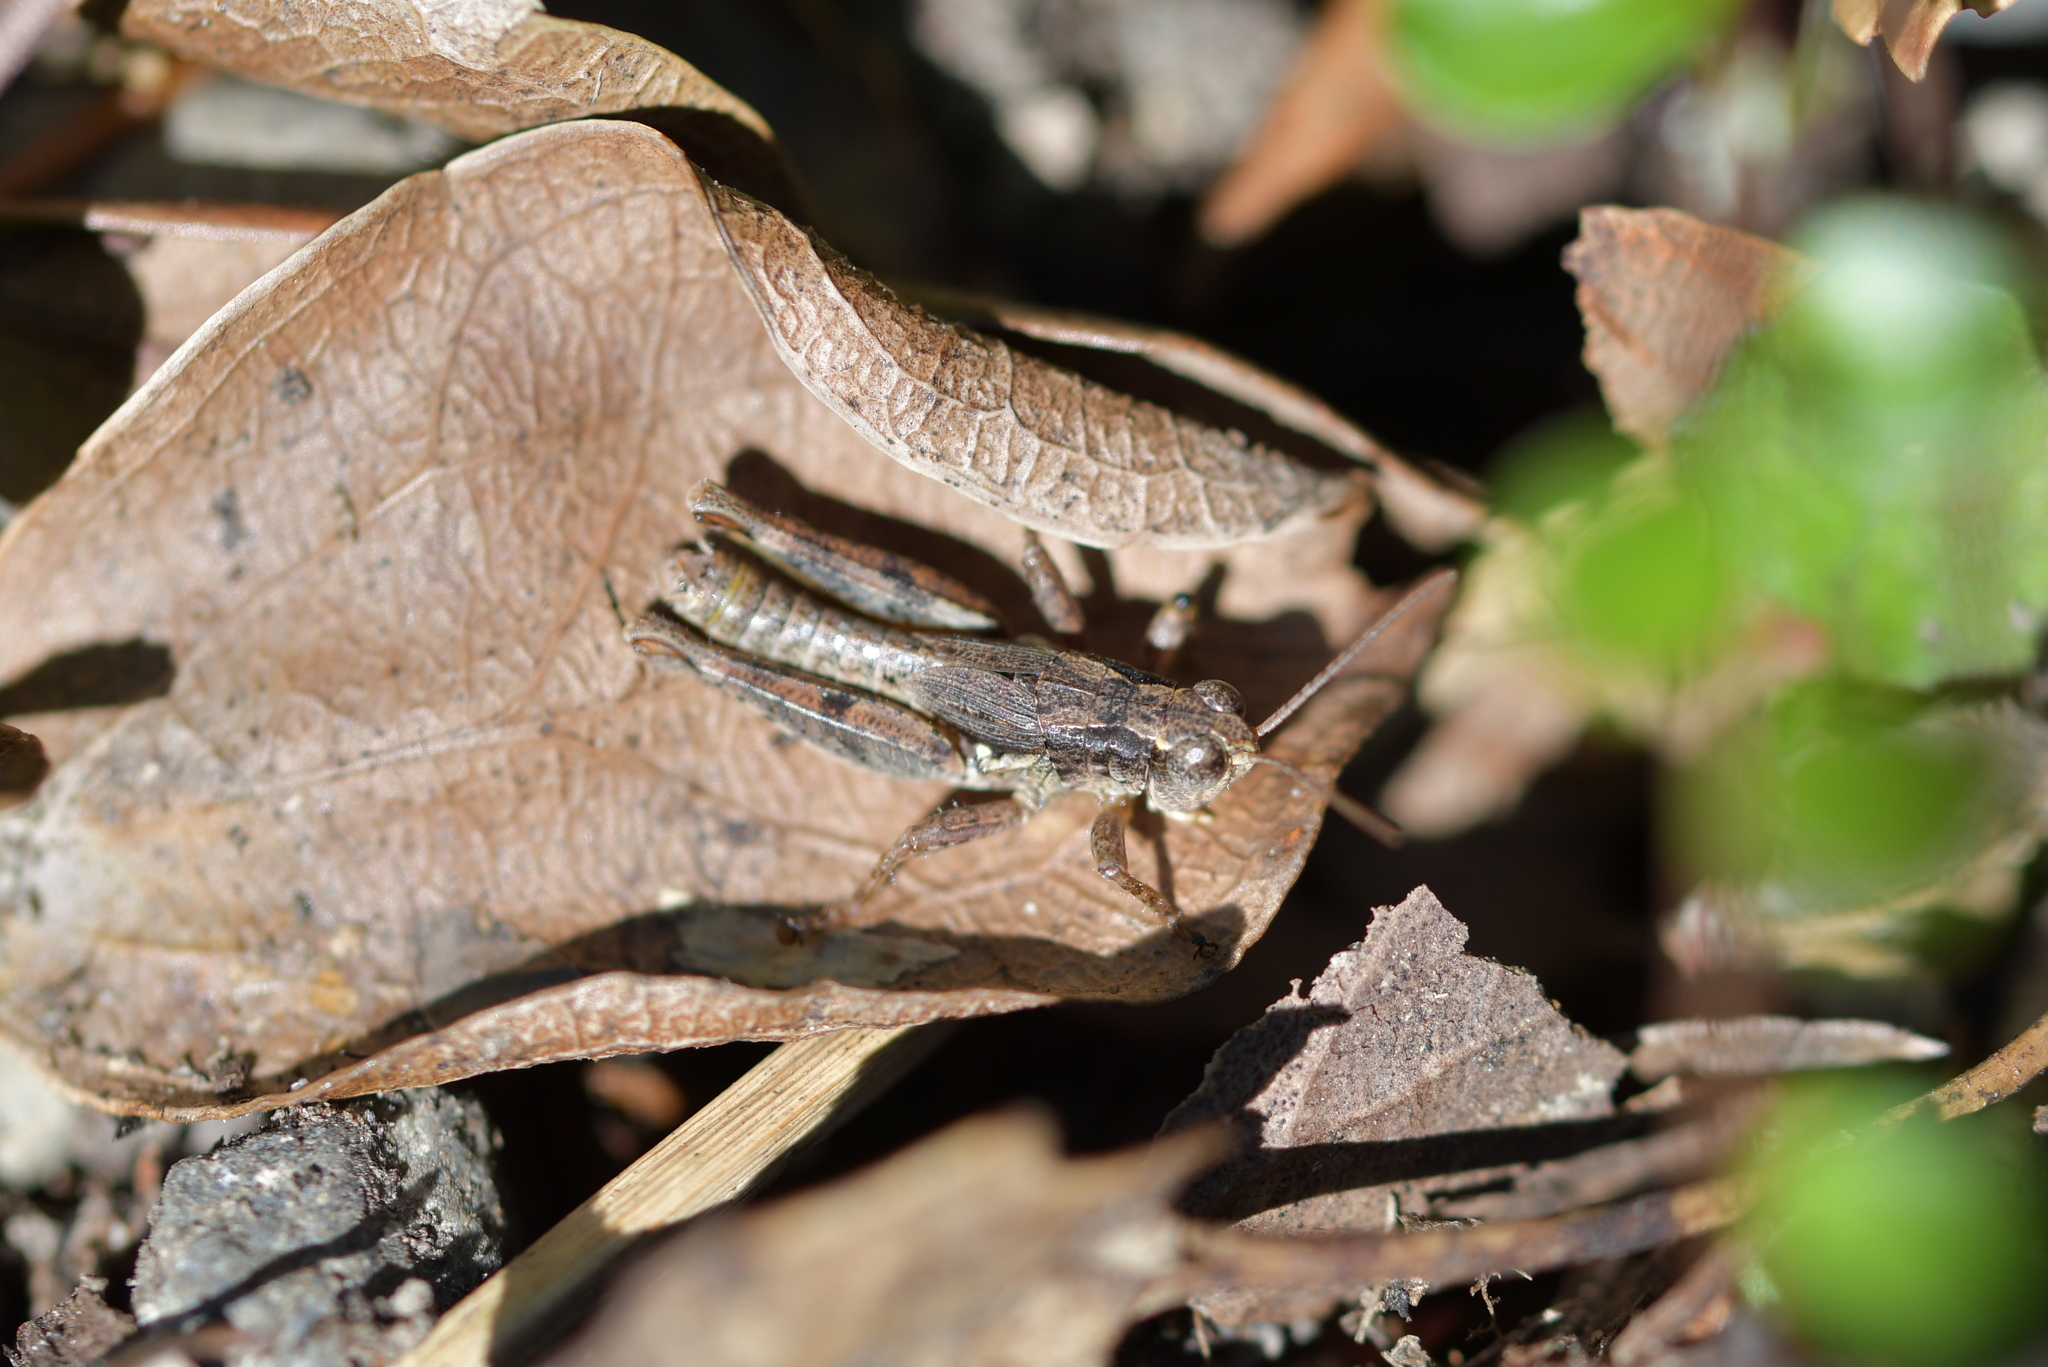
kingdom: Animalia
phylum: Arthropoda
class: Insecta
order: Orthoptera
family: Acrididae
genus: Phaulacridium
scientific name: Phaulacridium marginale
